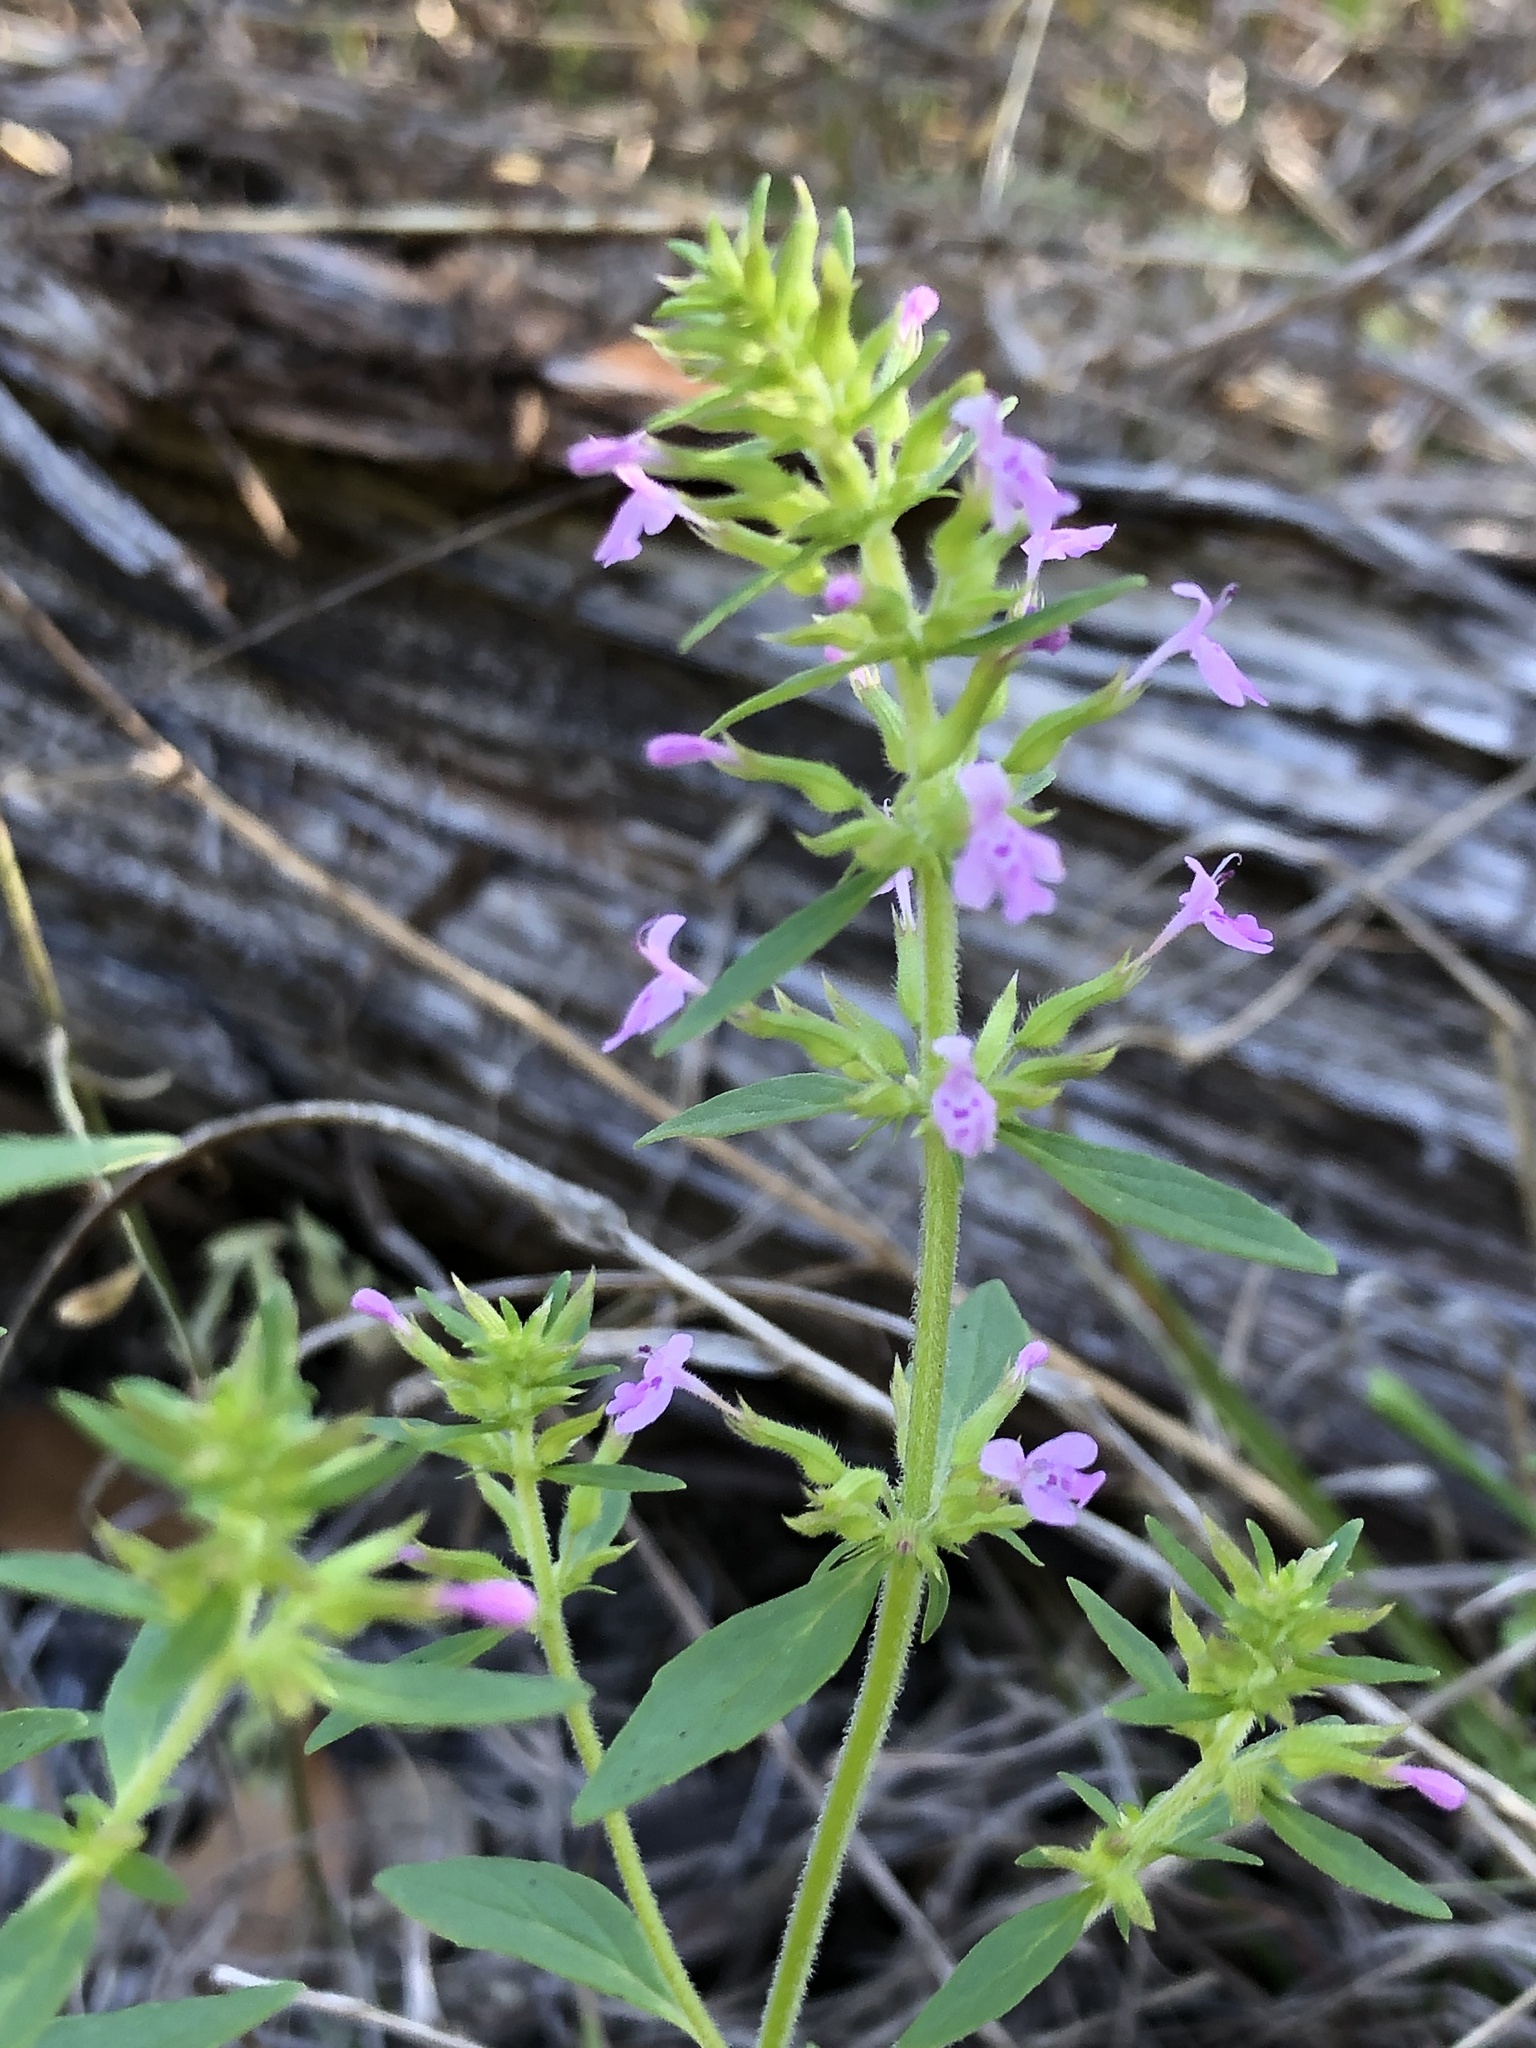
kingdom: Plantae
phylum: Tracheophyta
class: Magnoliopsida
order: Lamiales
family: Lamiaceae
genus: Hedeoma
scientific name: Hedeoma acinoides
